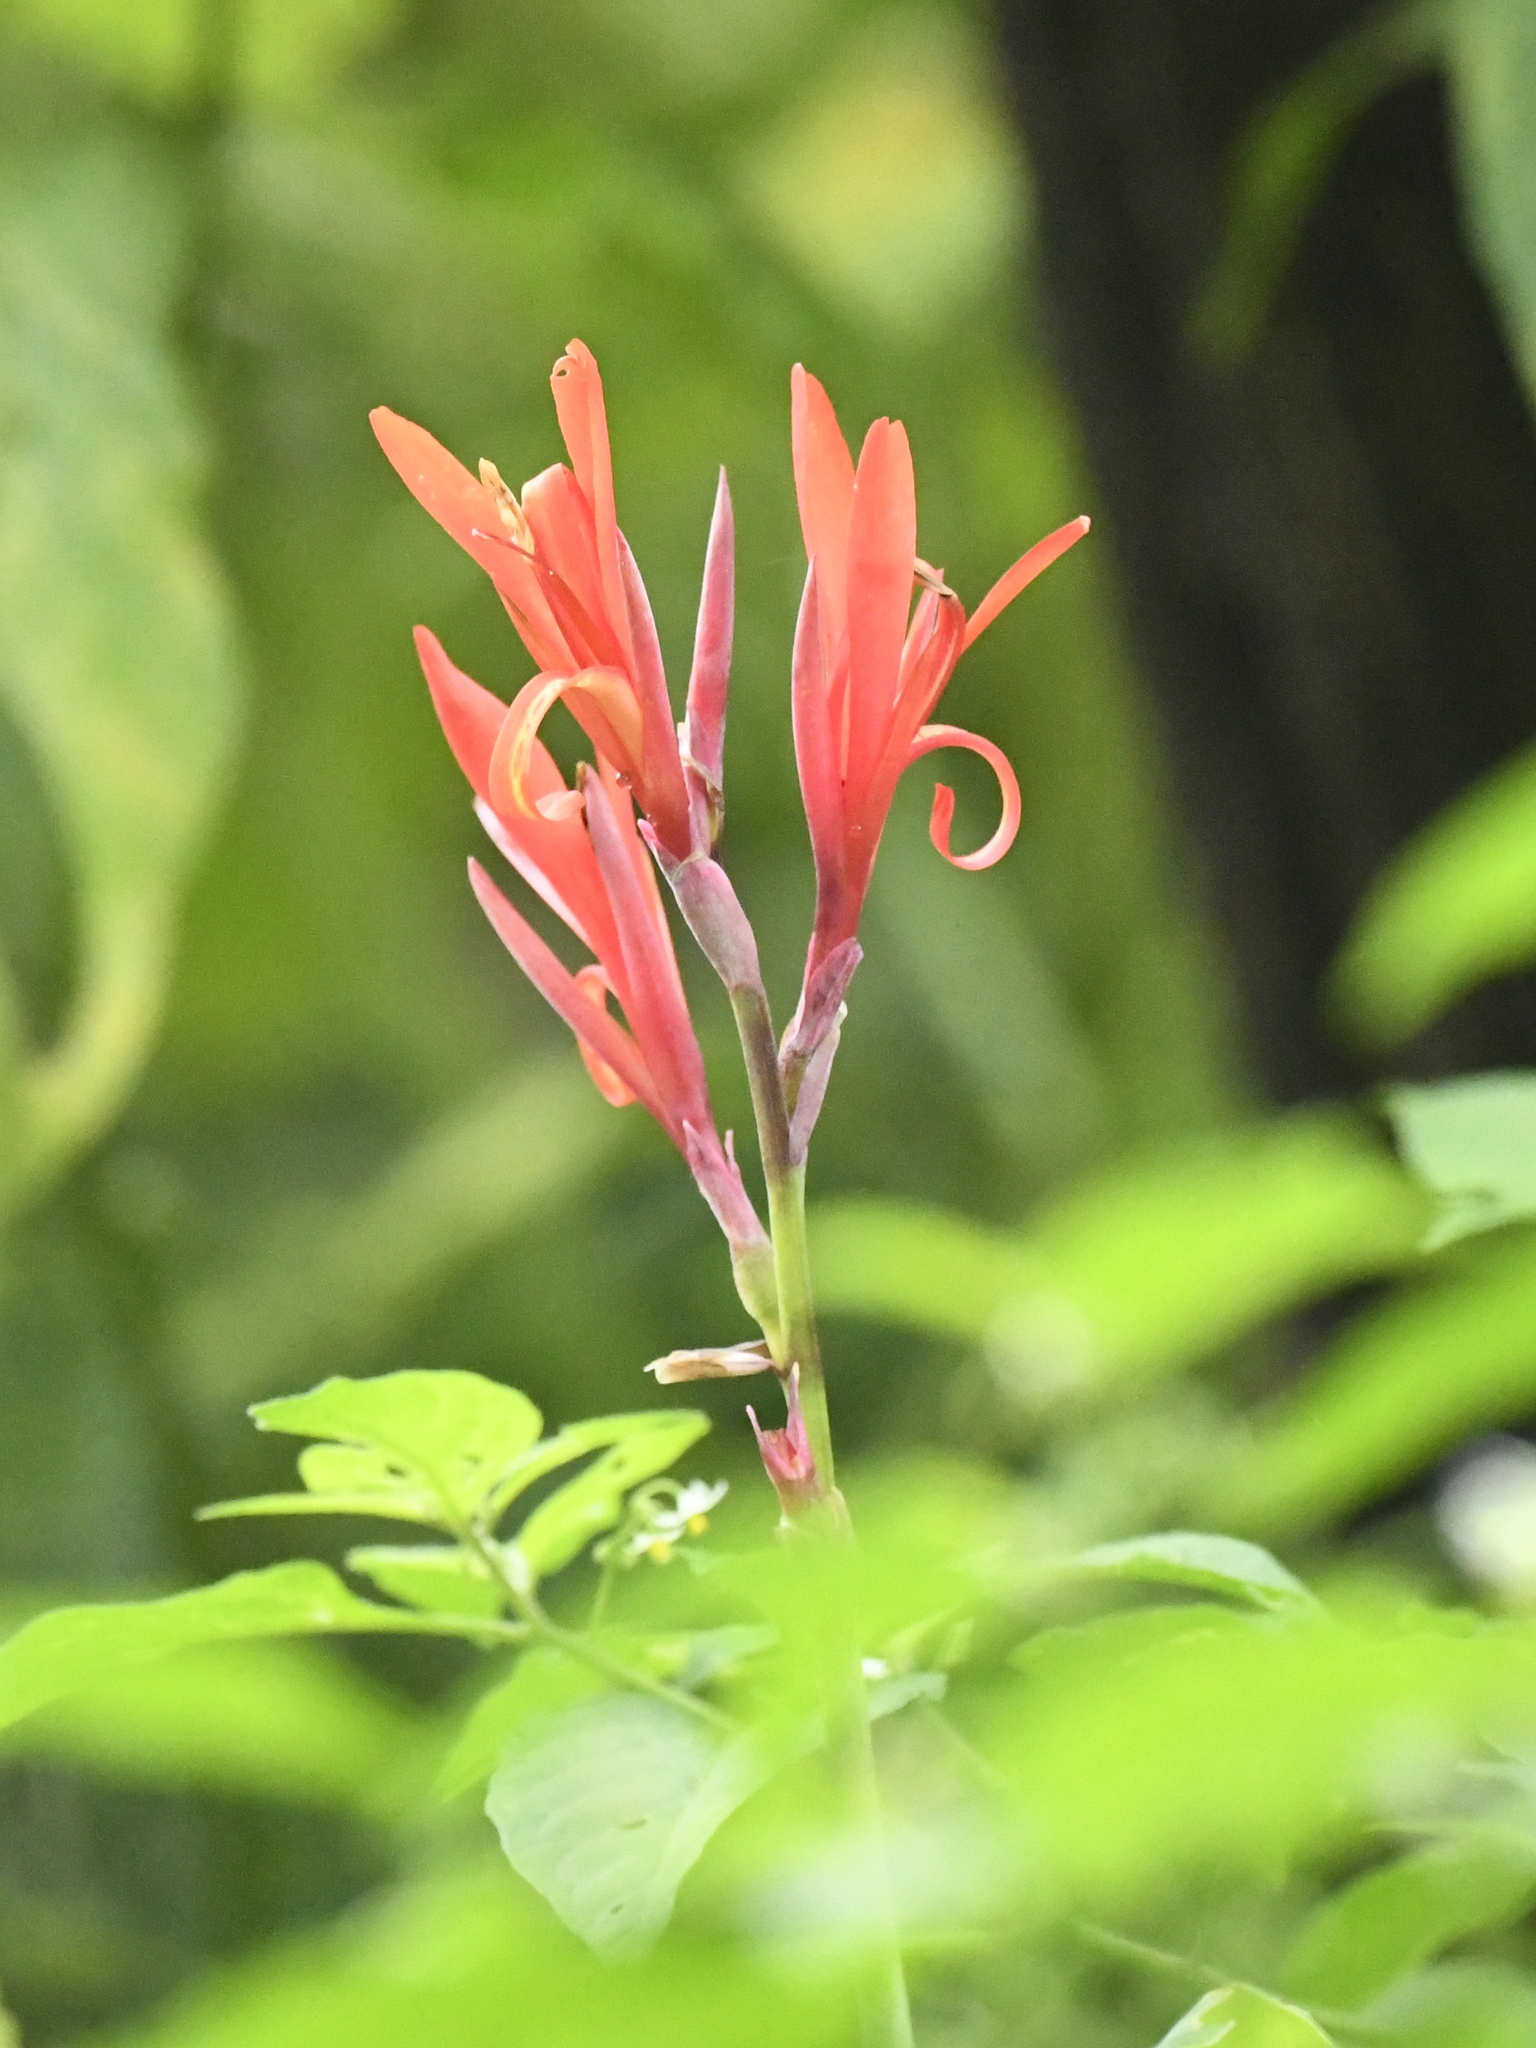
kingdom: Plantae
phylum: Tracheophyta
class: Liliopsida
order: Zingiberales
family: Cannaceae
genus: Canna
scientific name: Canna indica
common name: Indian shot
